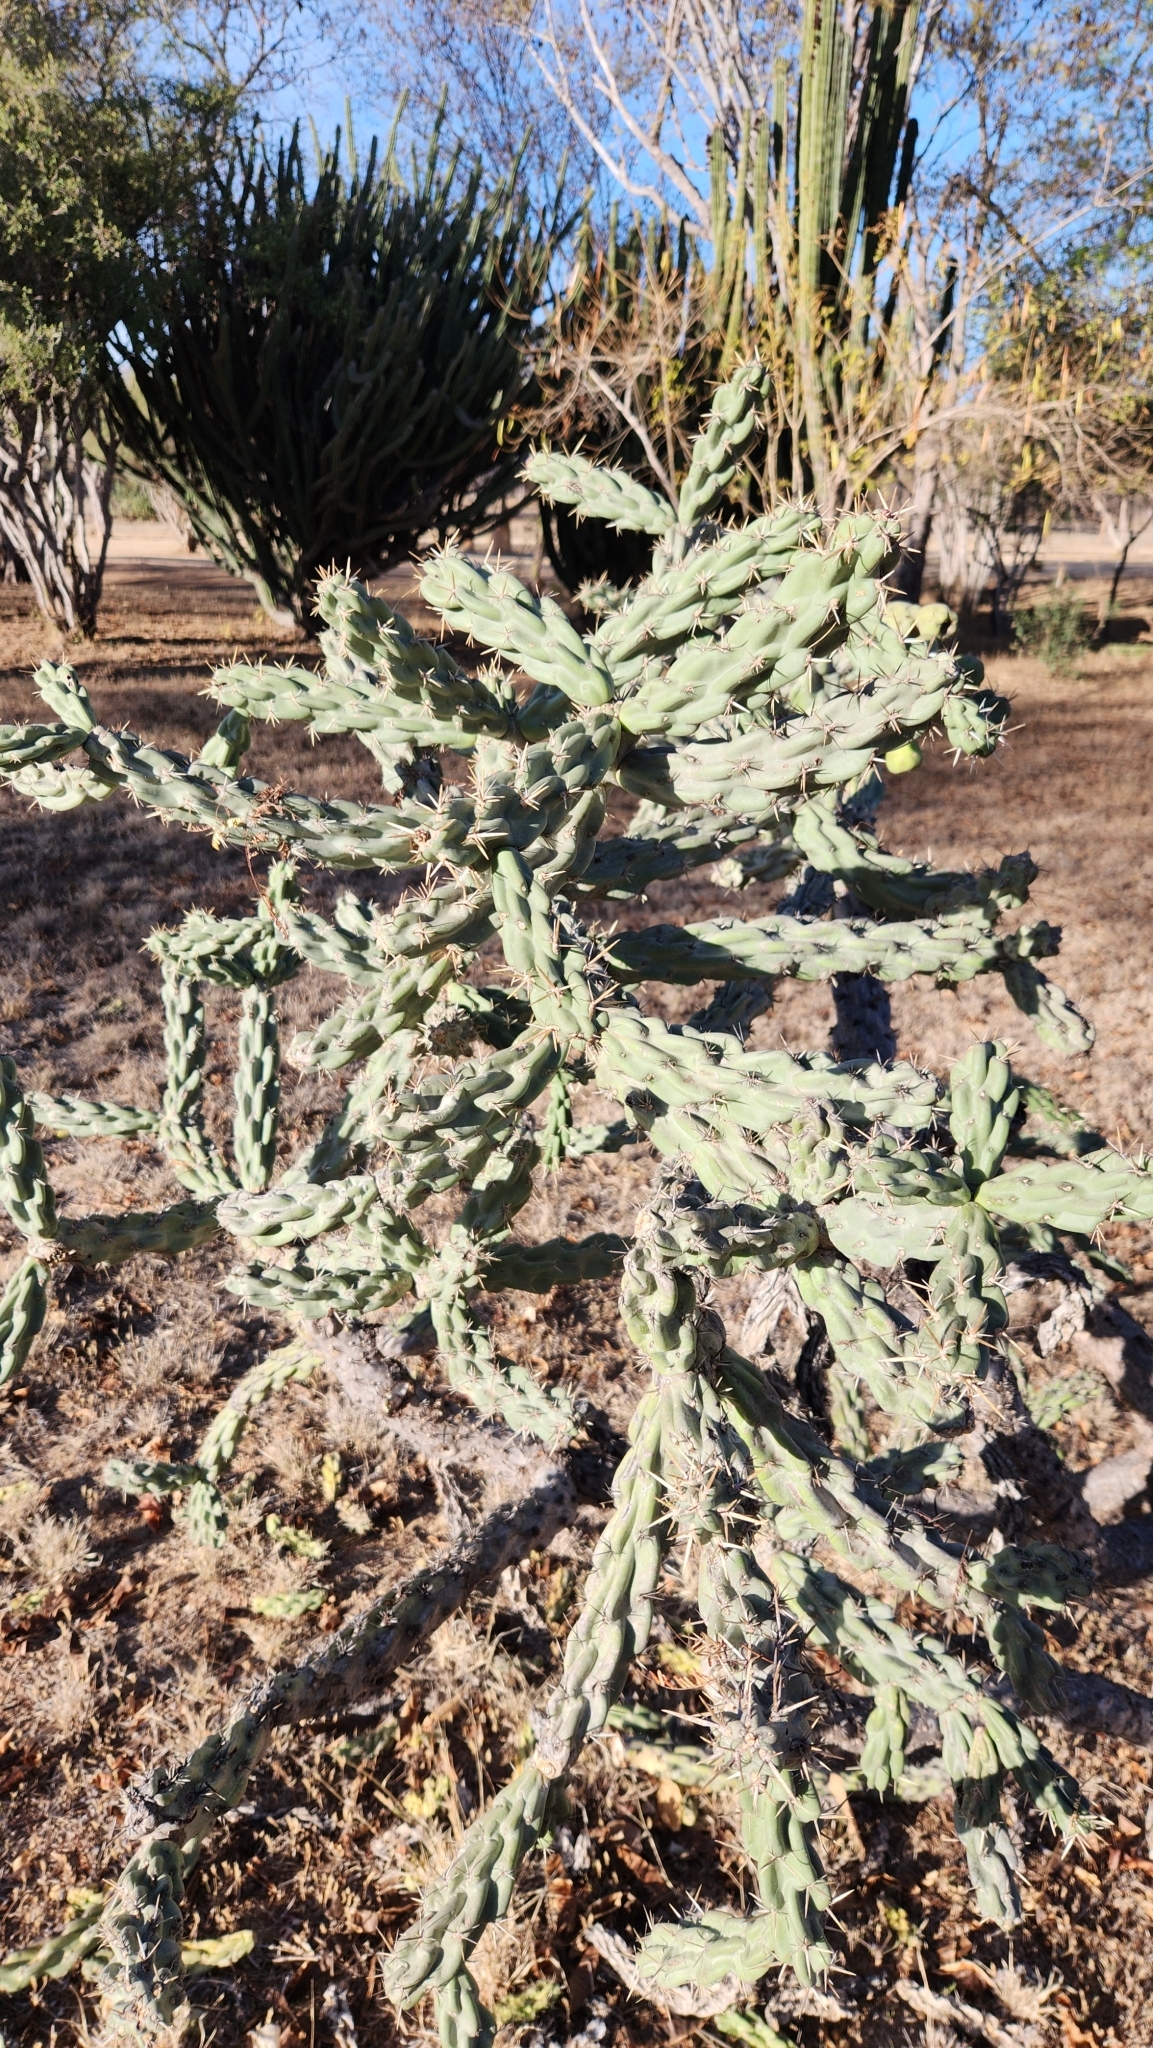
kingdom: Plantae
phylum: Tracheophyta
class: Magnoliopsida
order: Caryophyllales
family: Cactaceae
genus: Cylindropuntia
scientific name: Cylindropuntia cholla
